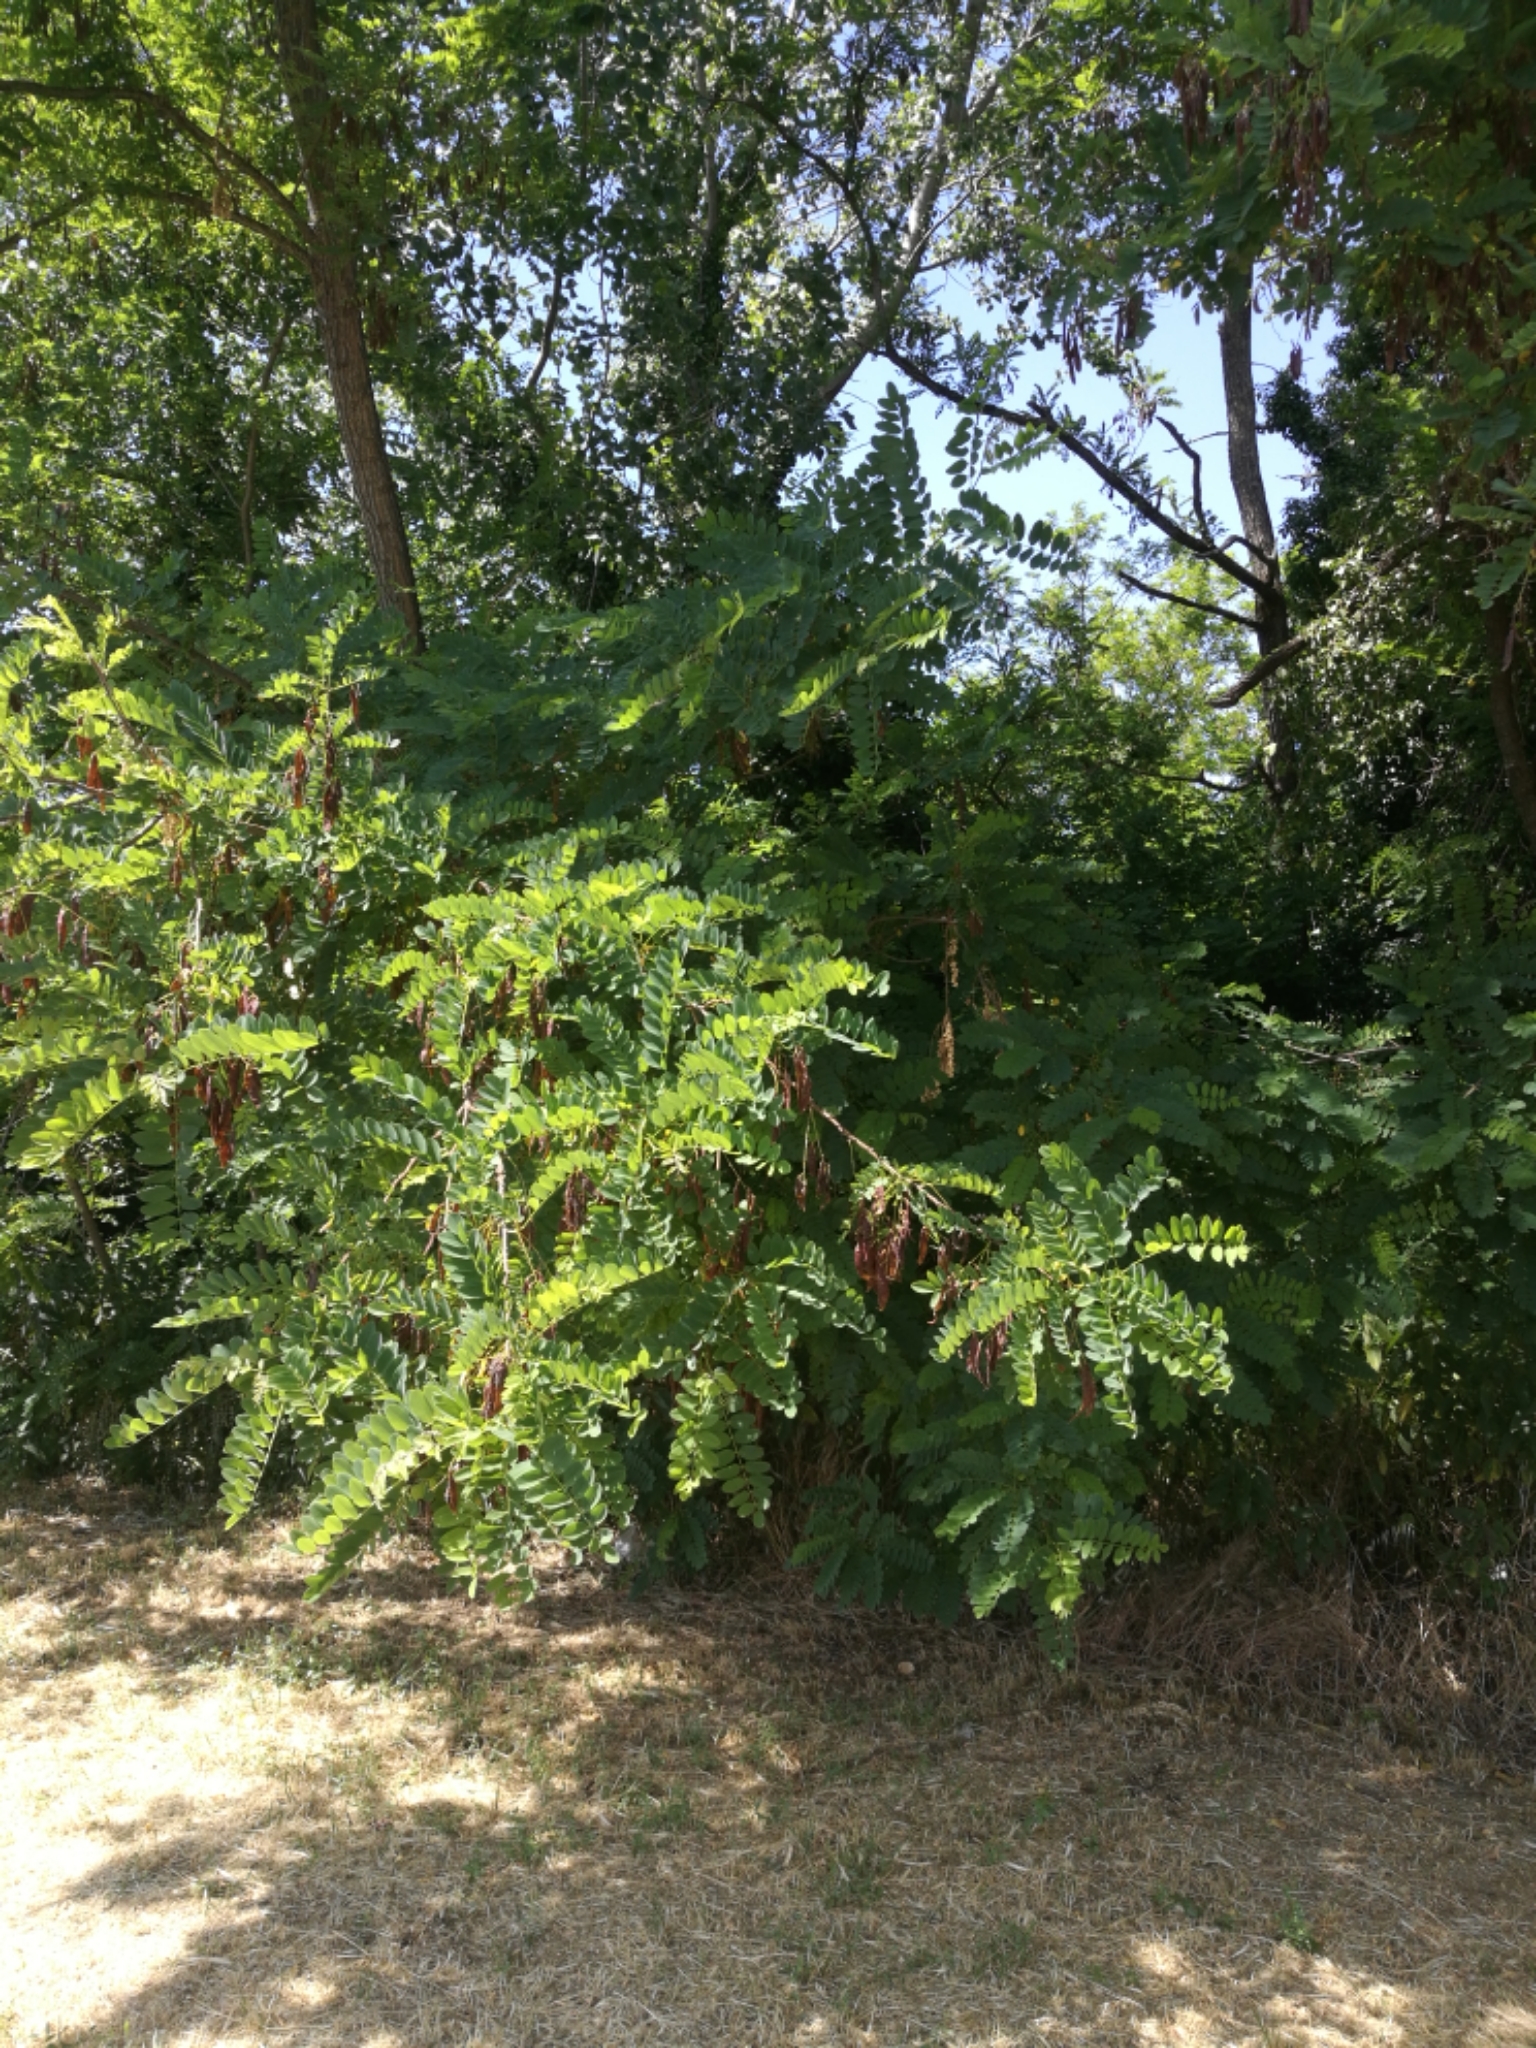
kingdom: Plantae
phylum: Tracheophyta
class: Magnoliopsida
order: Fabales
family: Fabaceae
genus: Robinia
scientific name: Robinia pseudoacacia
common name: Black locust
